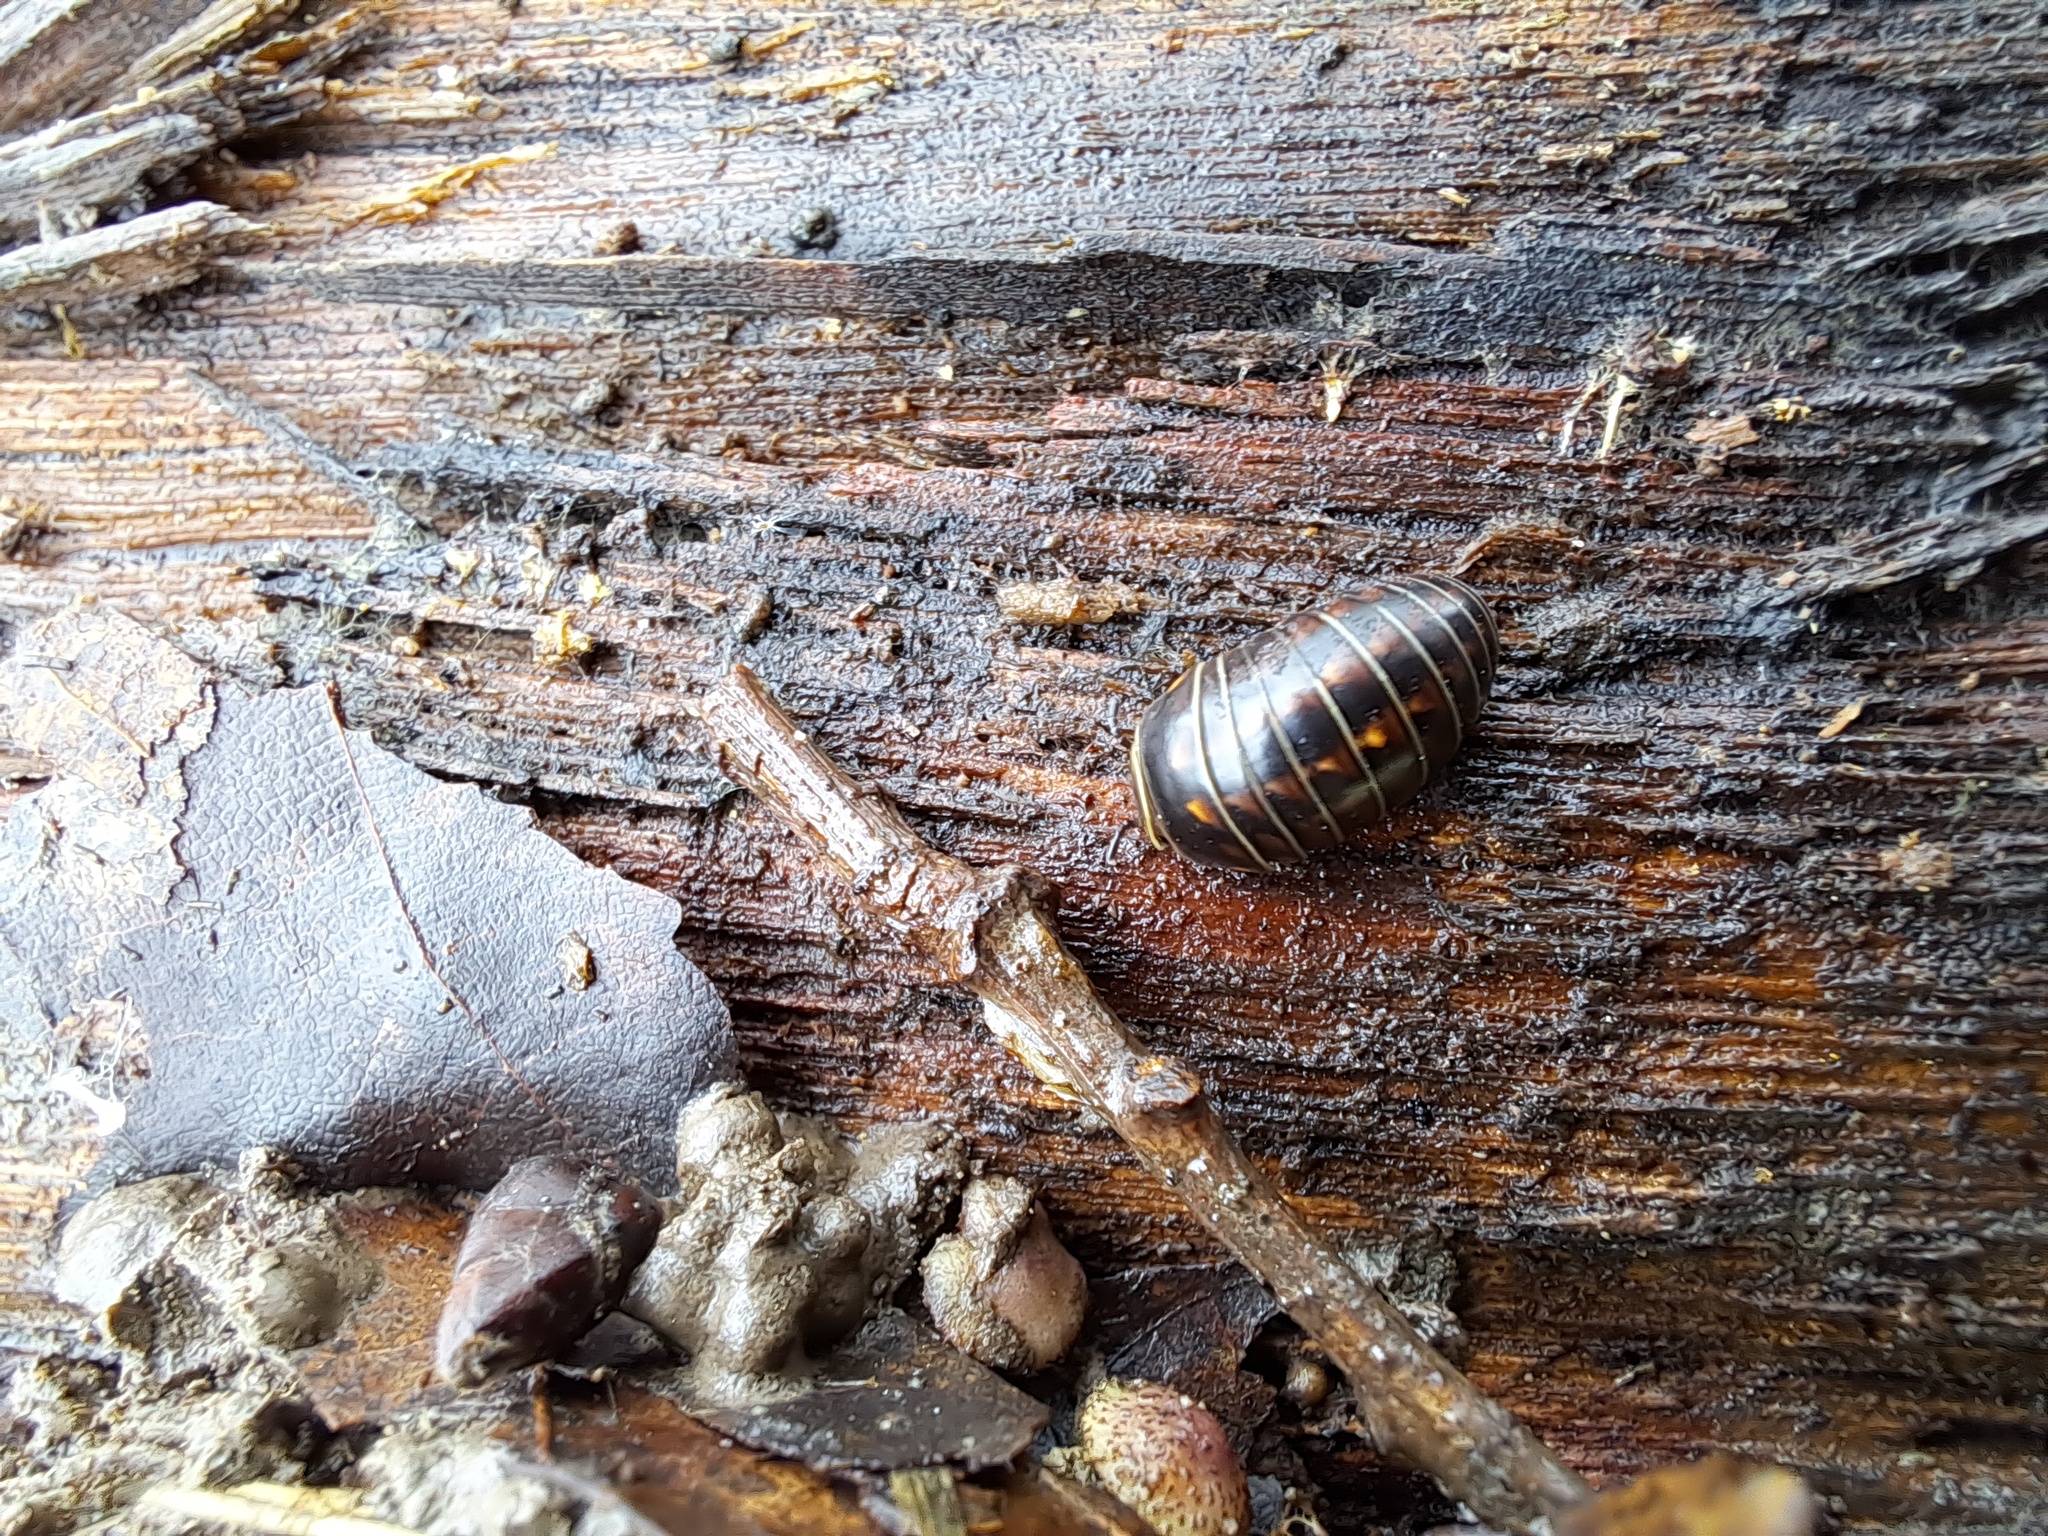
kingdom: Animalia
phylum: Arthropoda
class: Diplopoda
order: Glomerida
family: Glomeridae
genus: Glomeris
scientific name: Glomeris hexasticha
